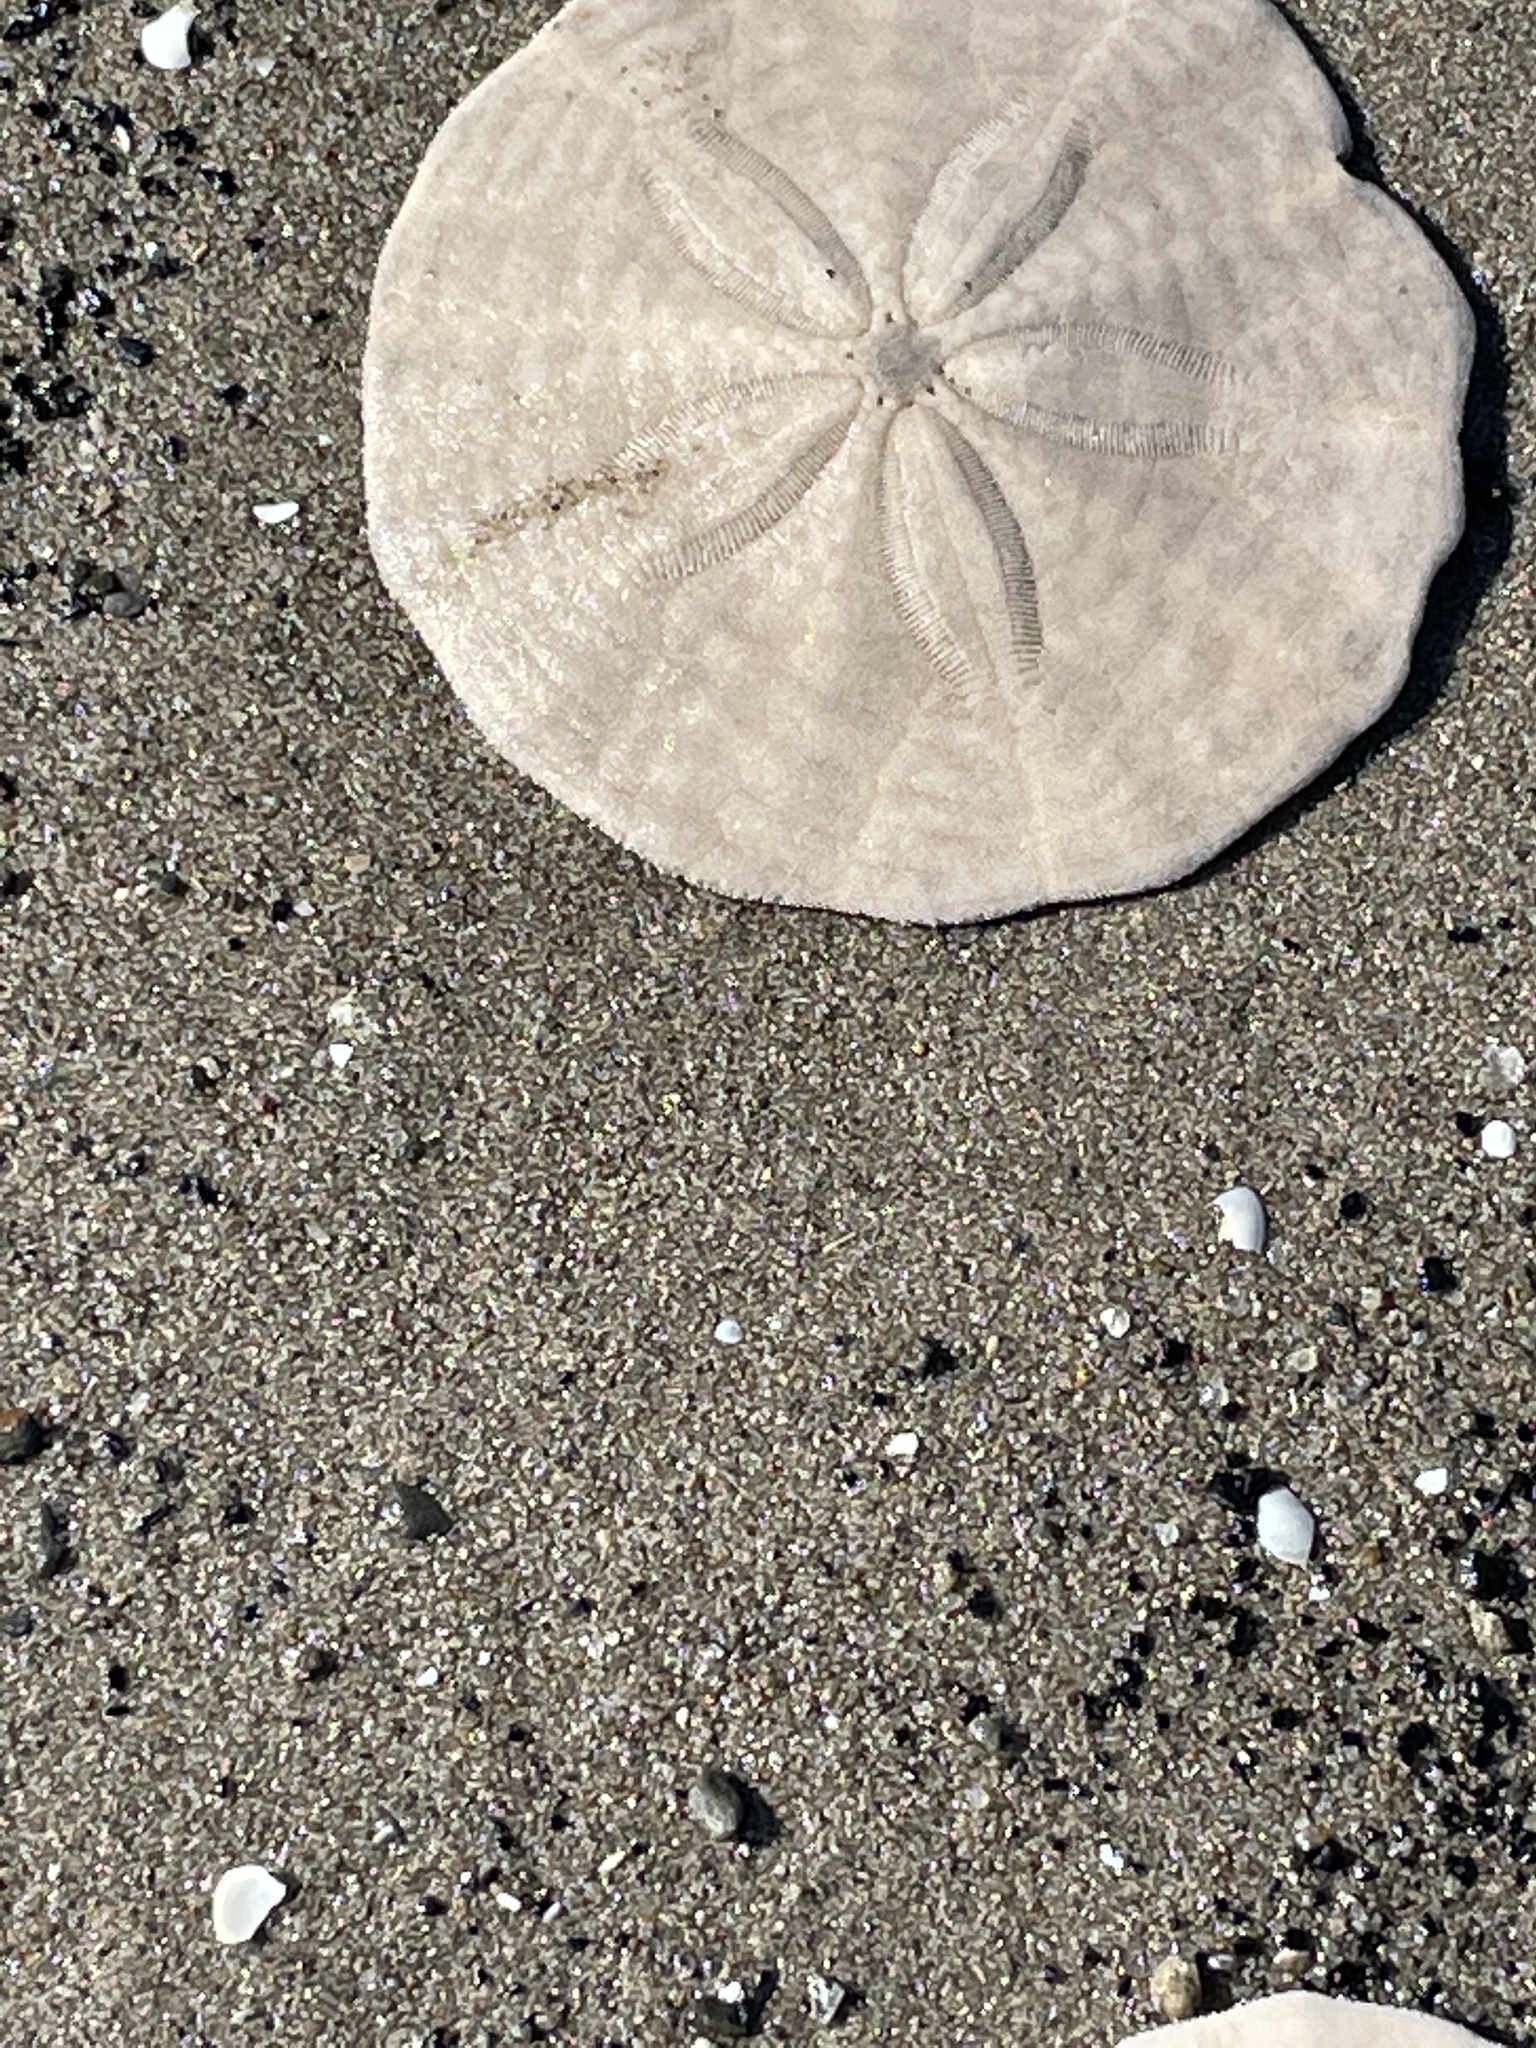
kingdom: Animalia
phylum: Echinodermata
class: Echinoidea
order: Echinolampadacea
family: Echinarachniidae
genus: Echinarachnius
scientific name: Echinarachnius parma
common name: Common sand dollar
